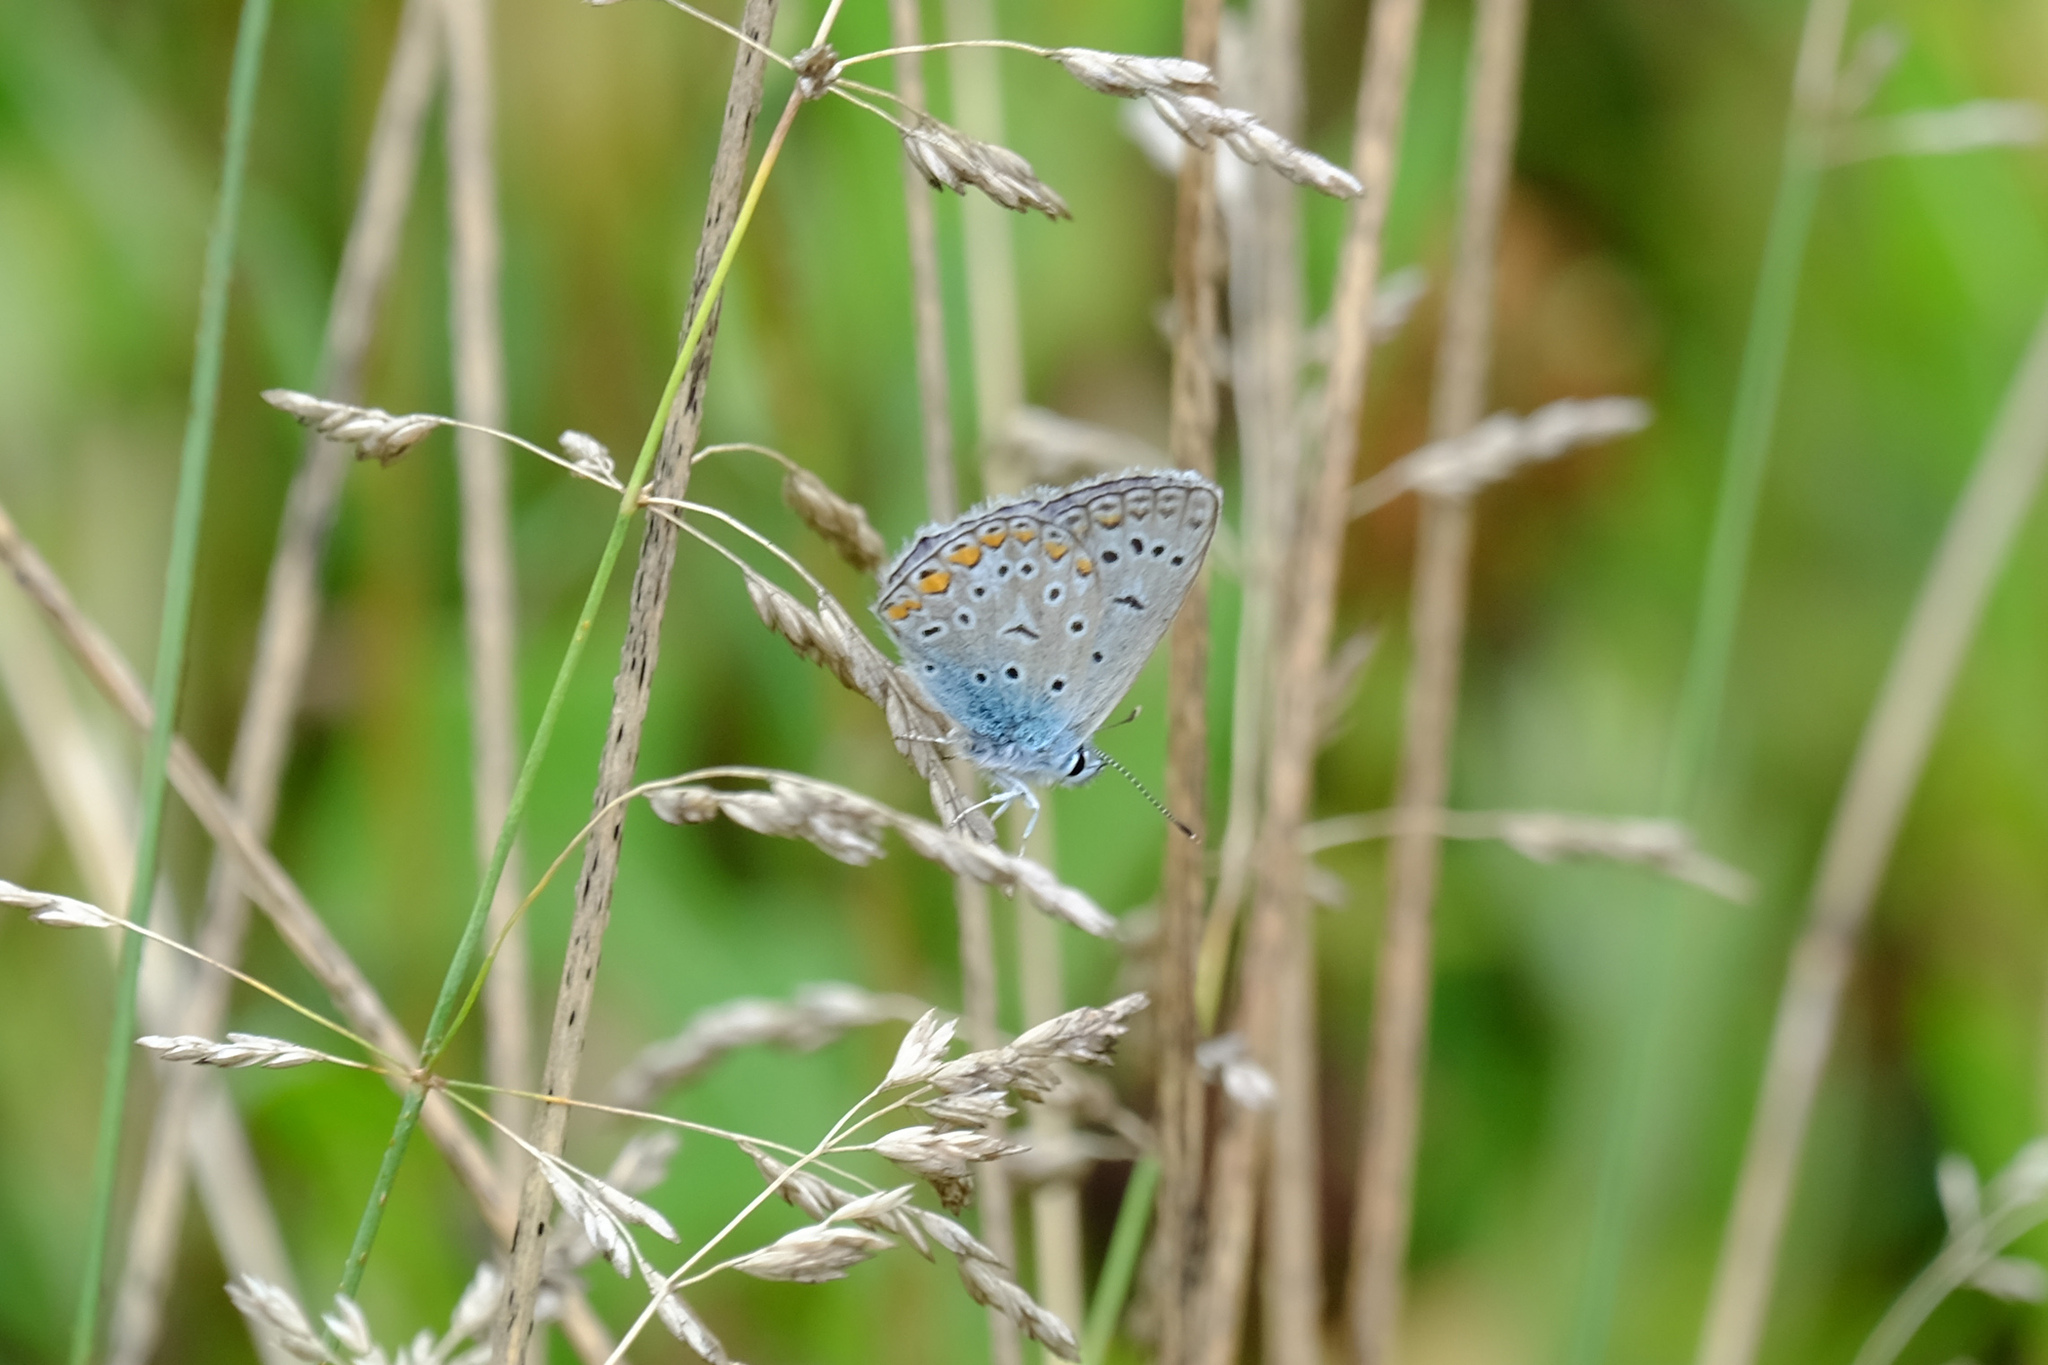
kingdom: Animalia
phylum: Arthropoda
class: Insecta
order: Lepidoptera
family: Lycaenidae
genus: Polyommatus
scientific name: Polyommatus icarus
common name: Common blue
